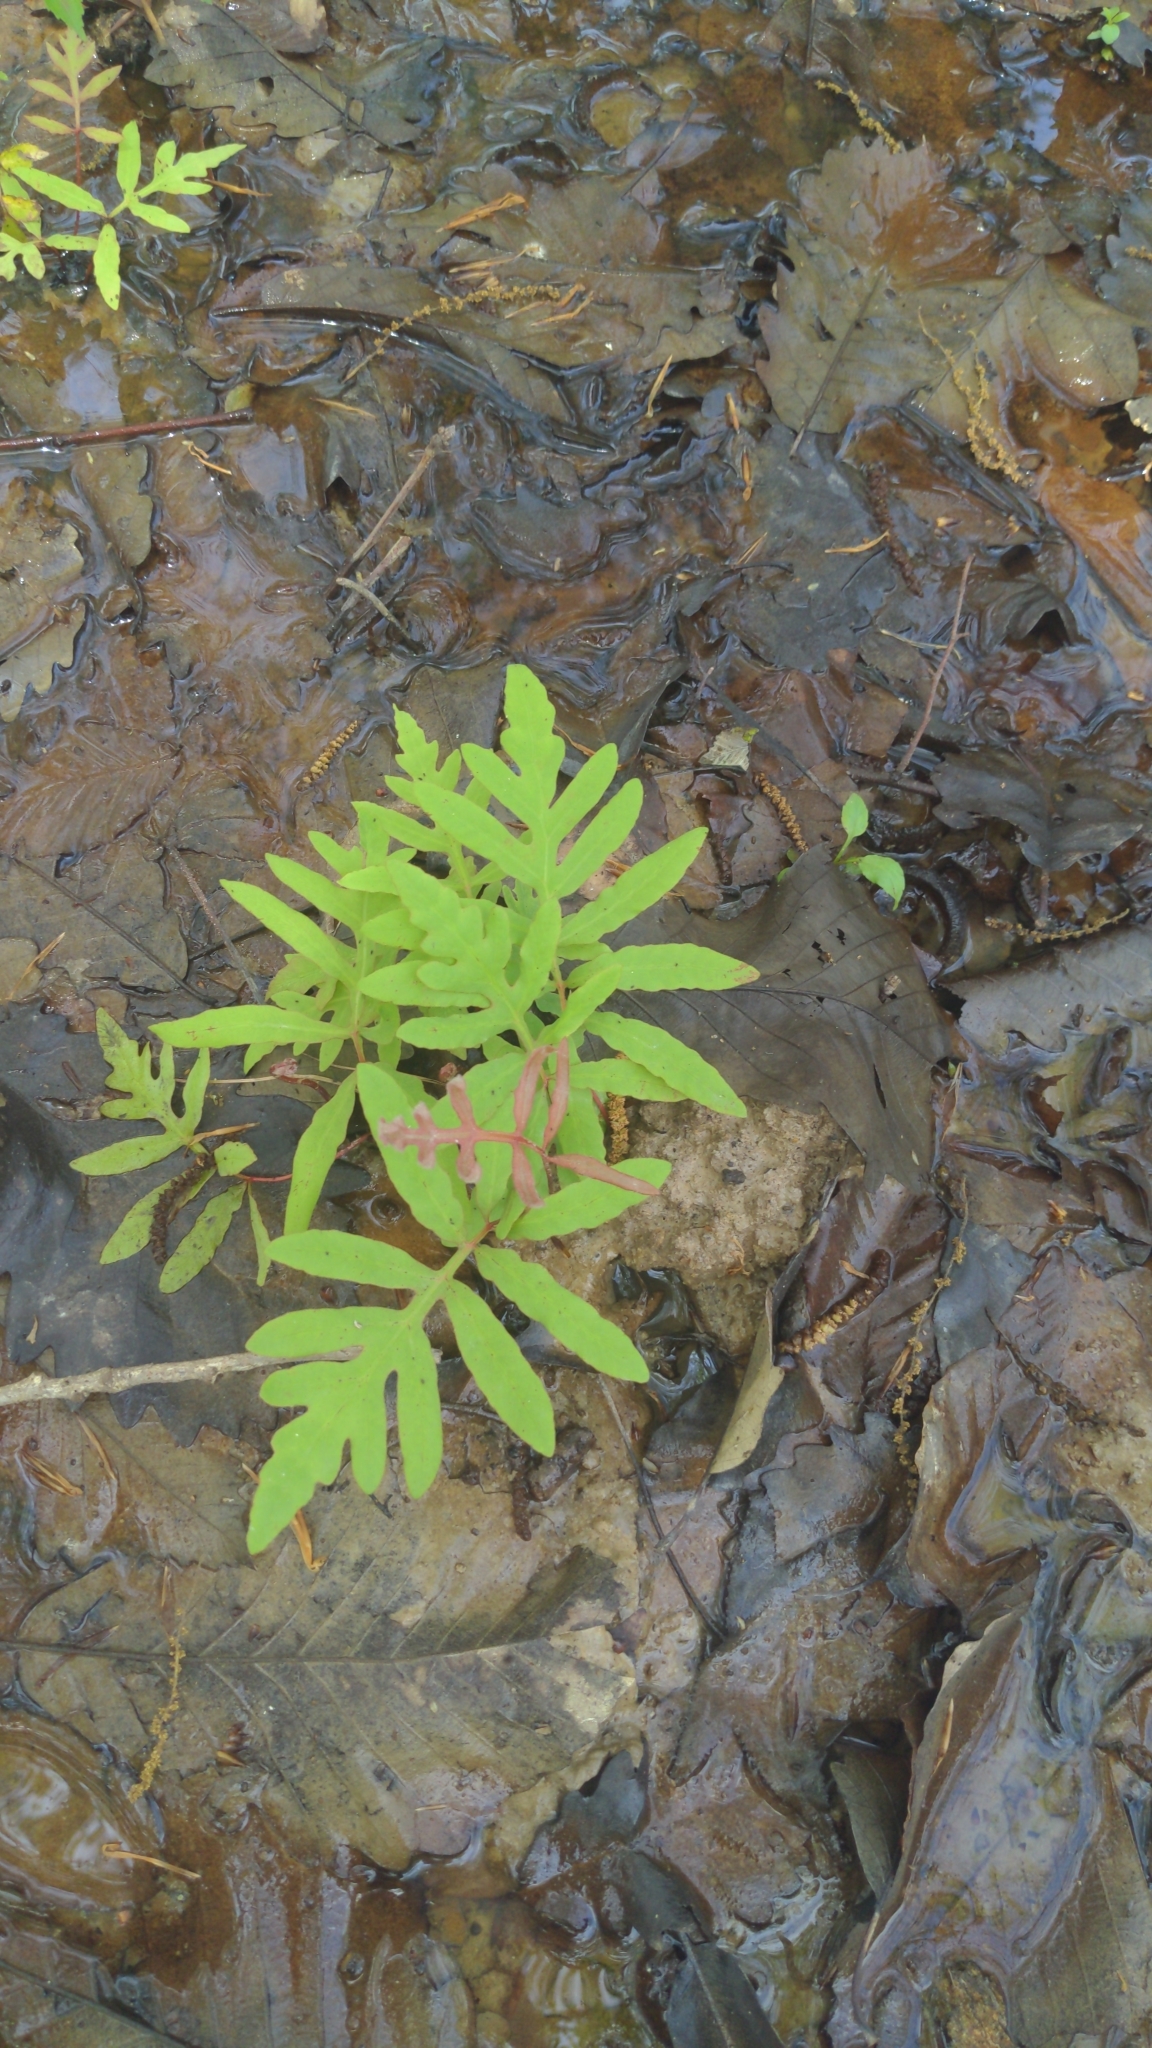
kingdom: Plantae
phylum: Tracheophyta
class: Polypodiopsida
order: Polypodiales
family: Onocleaceae
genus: Onoclea
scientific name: Onoclea sensibilis
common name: Sensitive fern
